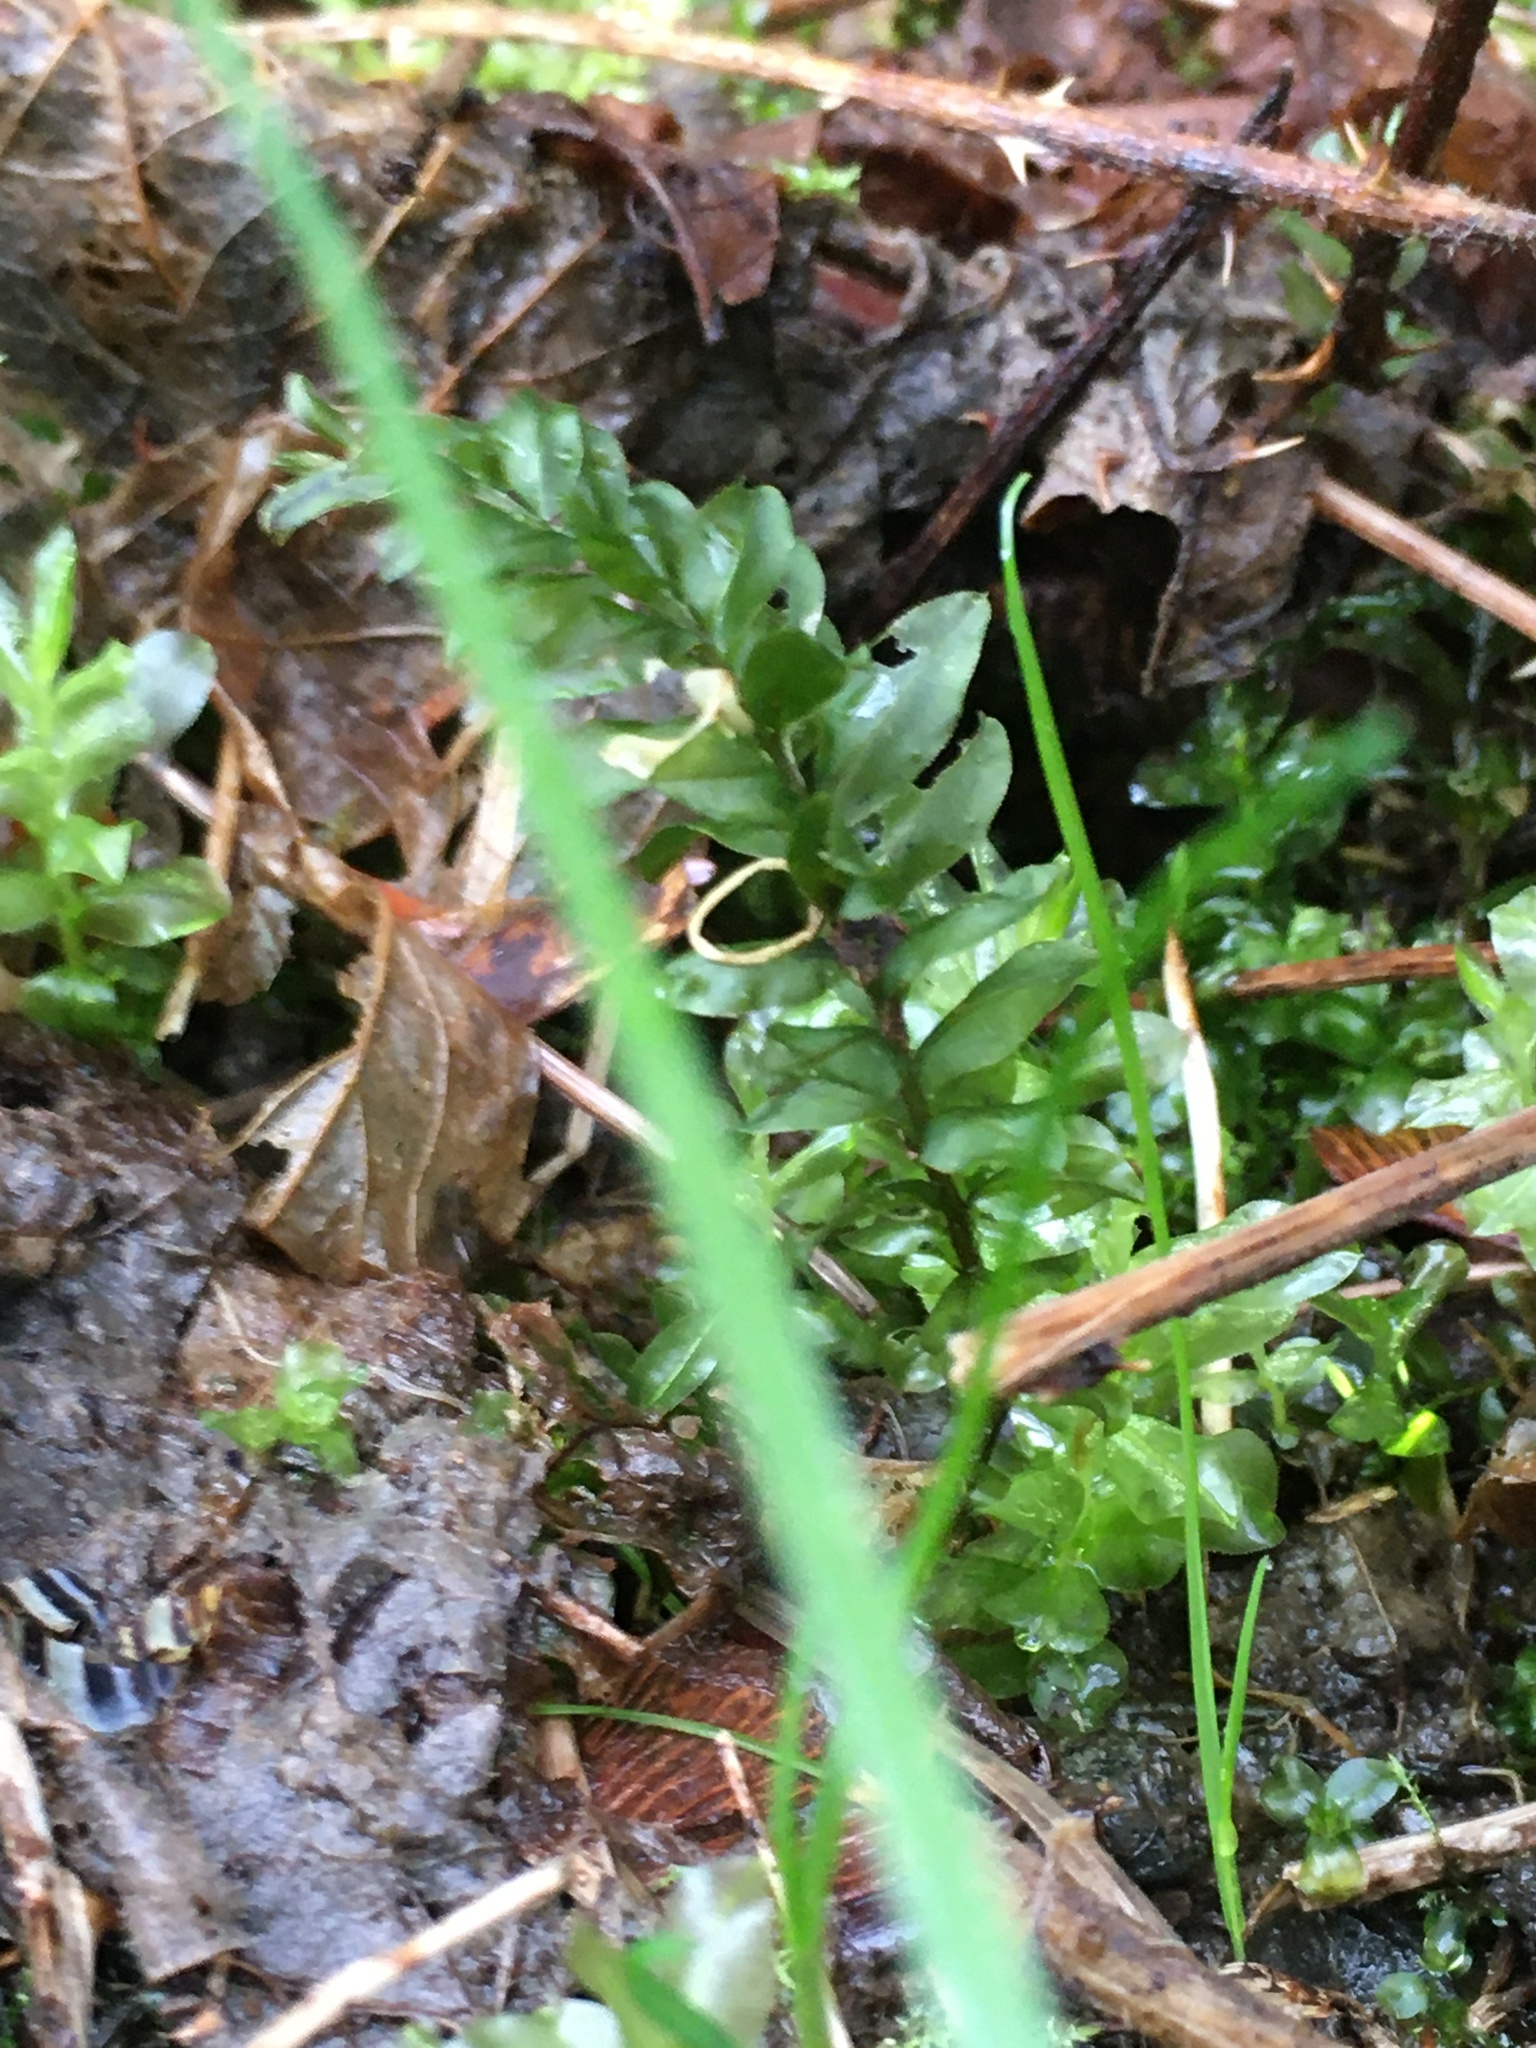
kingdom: Plantae
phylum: Bryophyta
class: Bryopsida
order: Bryales
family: Mniaceae
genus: Plagiomnium
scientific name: Plagiomnium insigne
